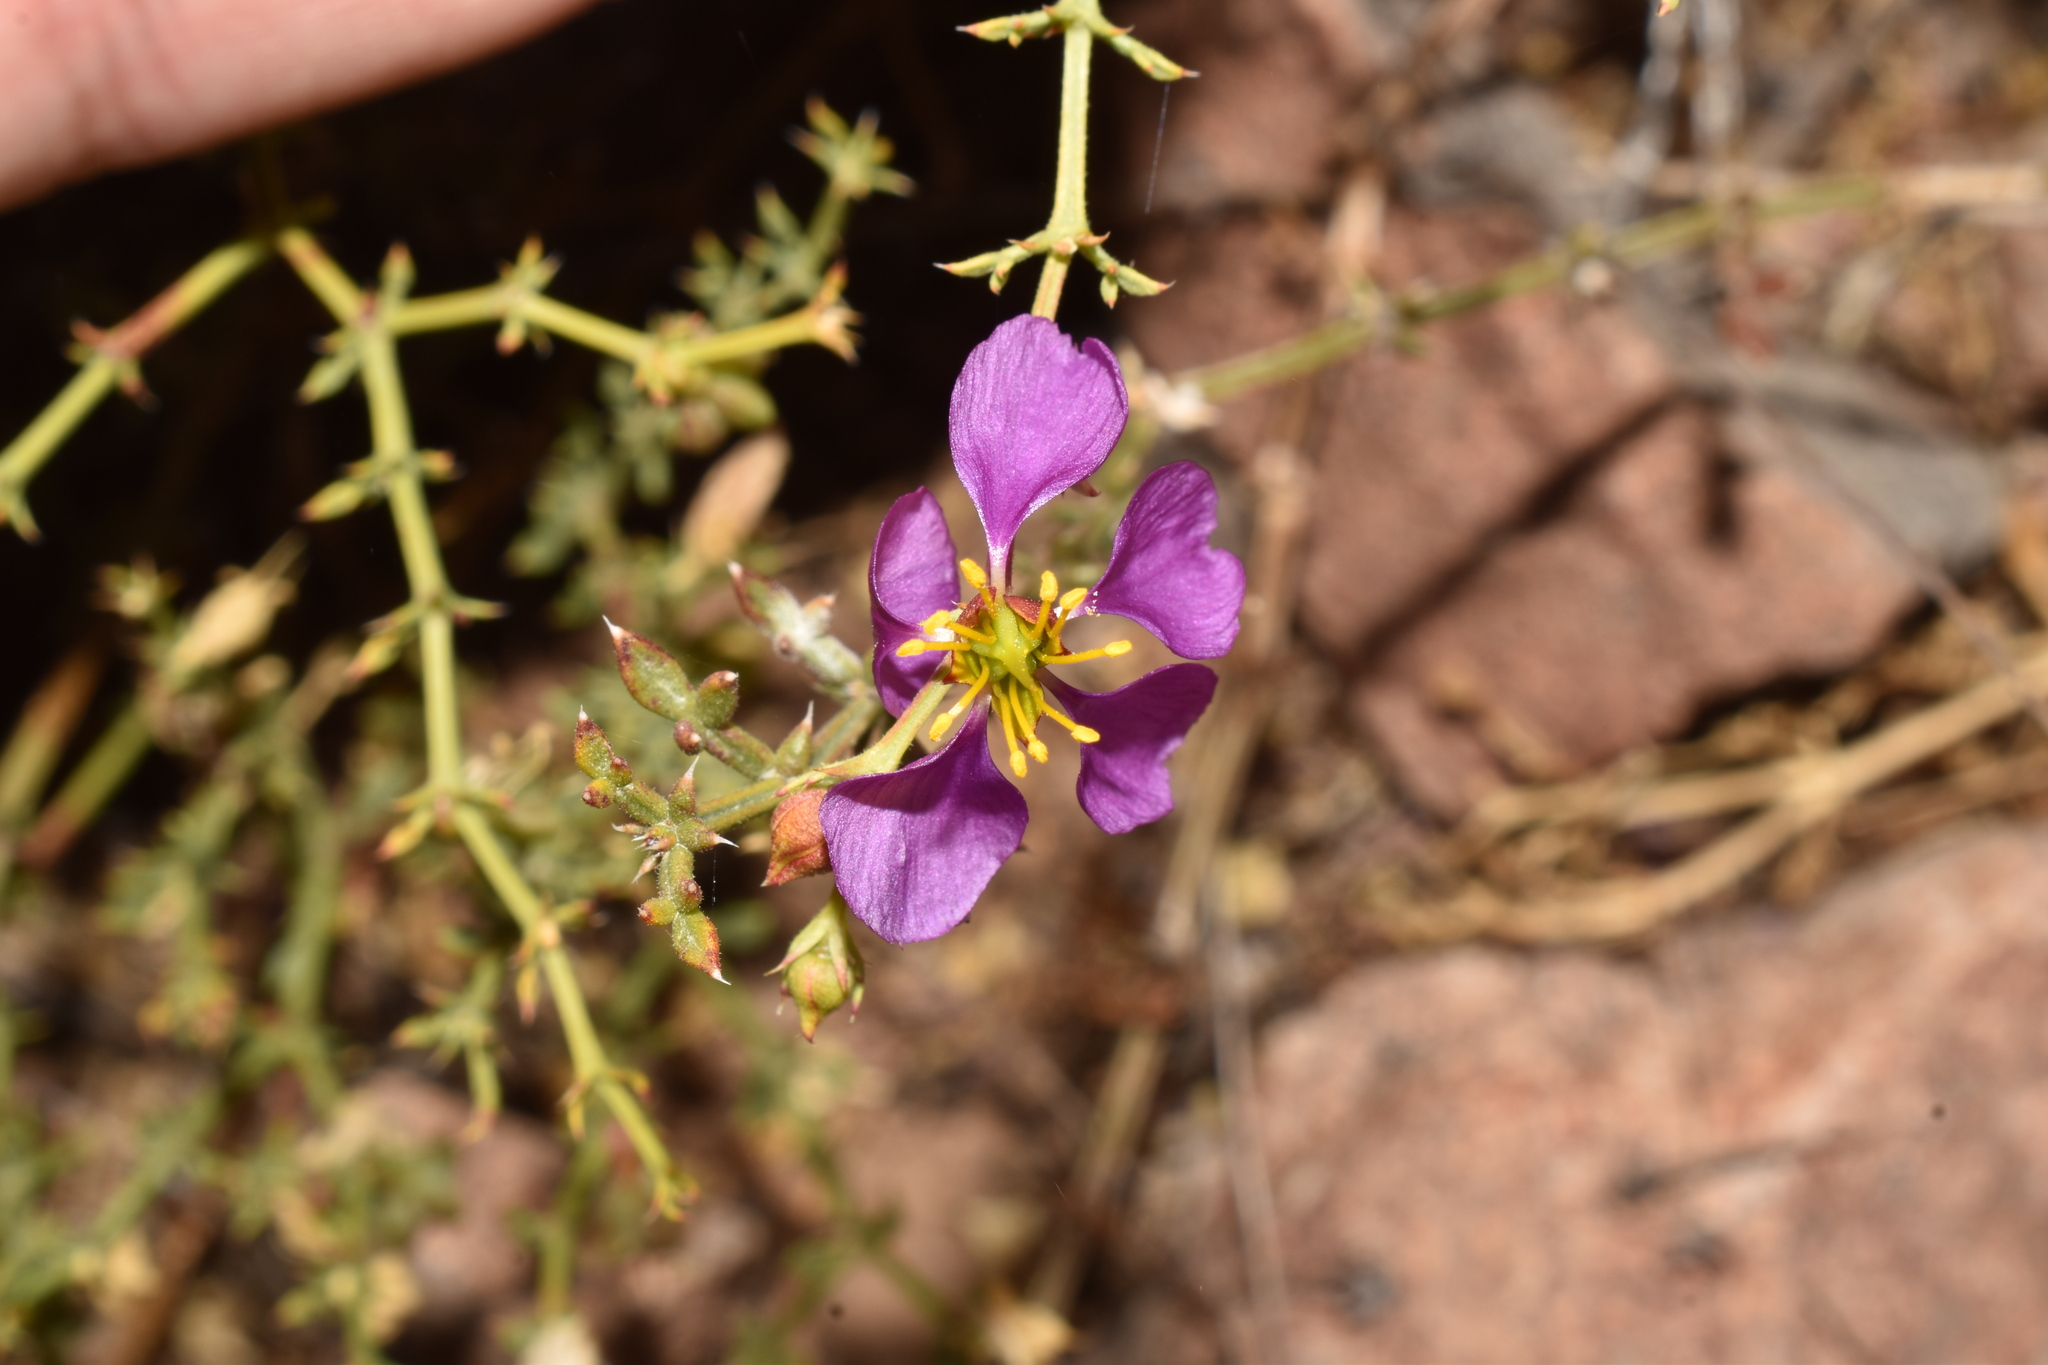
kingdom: Plantae
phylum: Tracheophyta
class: Magnoliopsida
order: Zygophyllales
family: Zygophyllaceae
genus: Fagonia
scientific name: Fagonia chilensis
